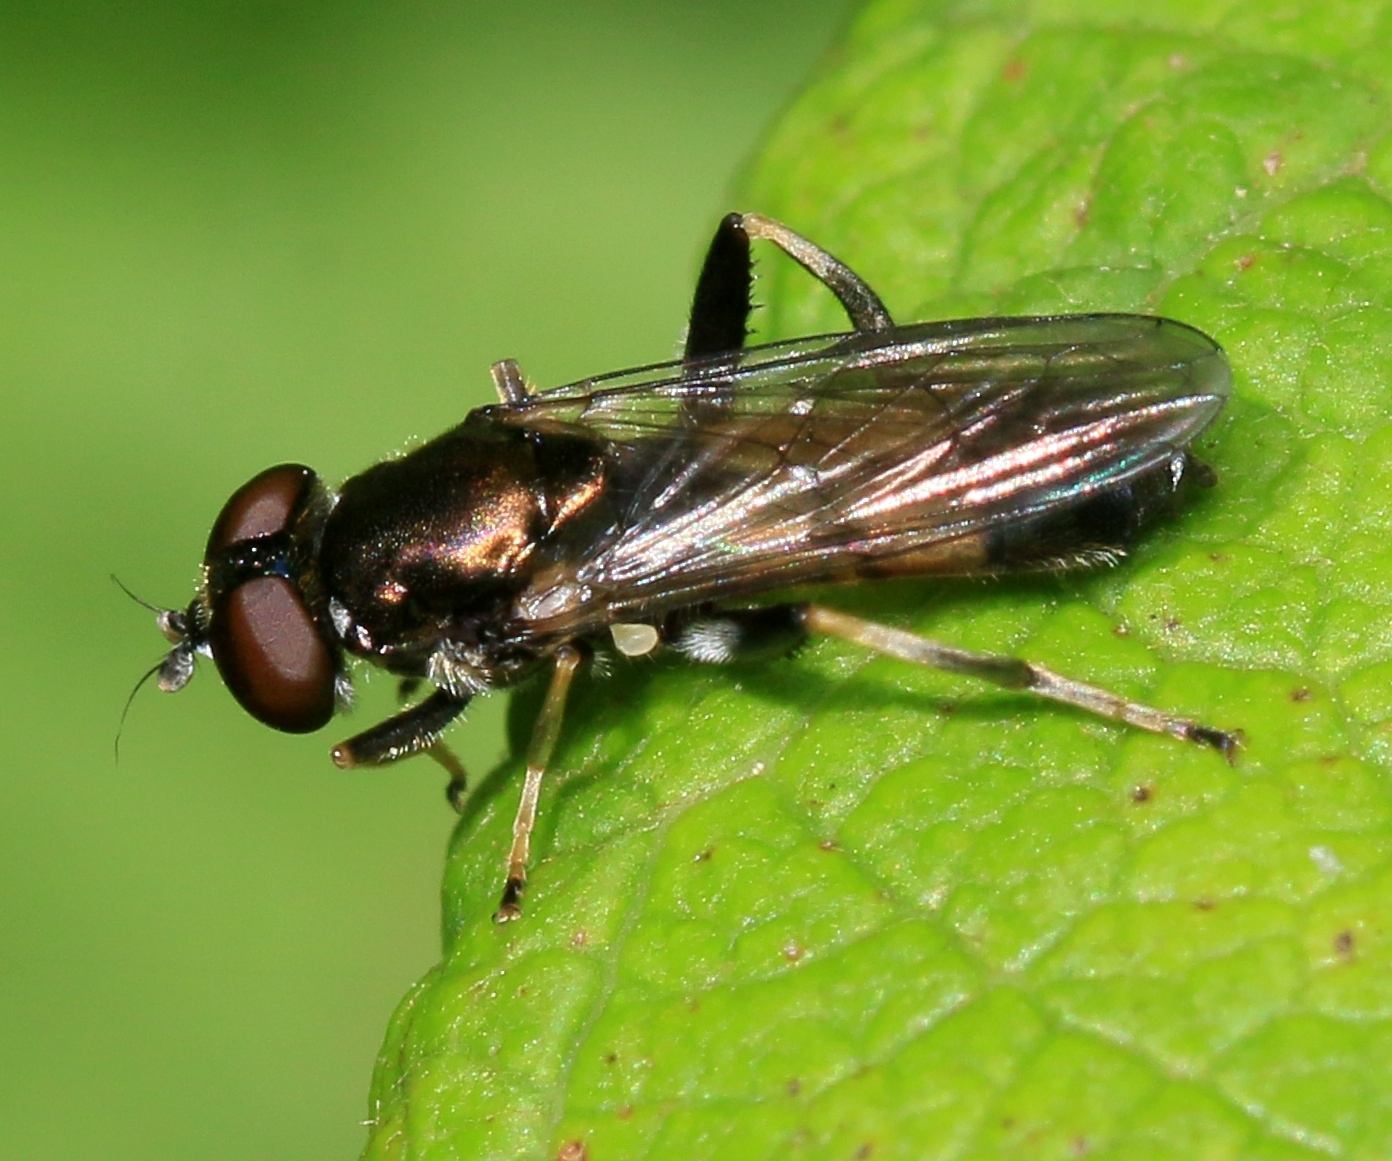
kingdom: Animalia
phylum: Arthropoda
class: Insecta
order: Diptera
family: Syrphidae
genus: Xylota
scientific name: Xylota segnis
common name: Brown-toed forest fly
